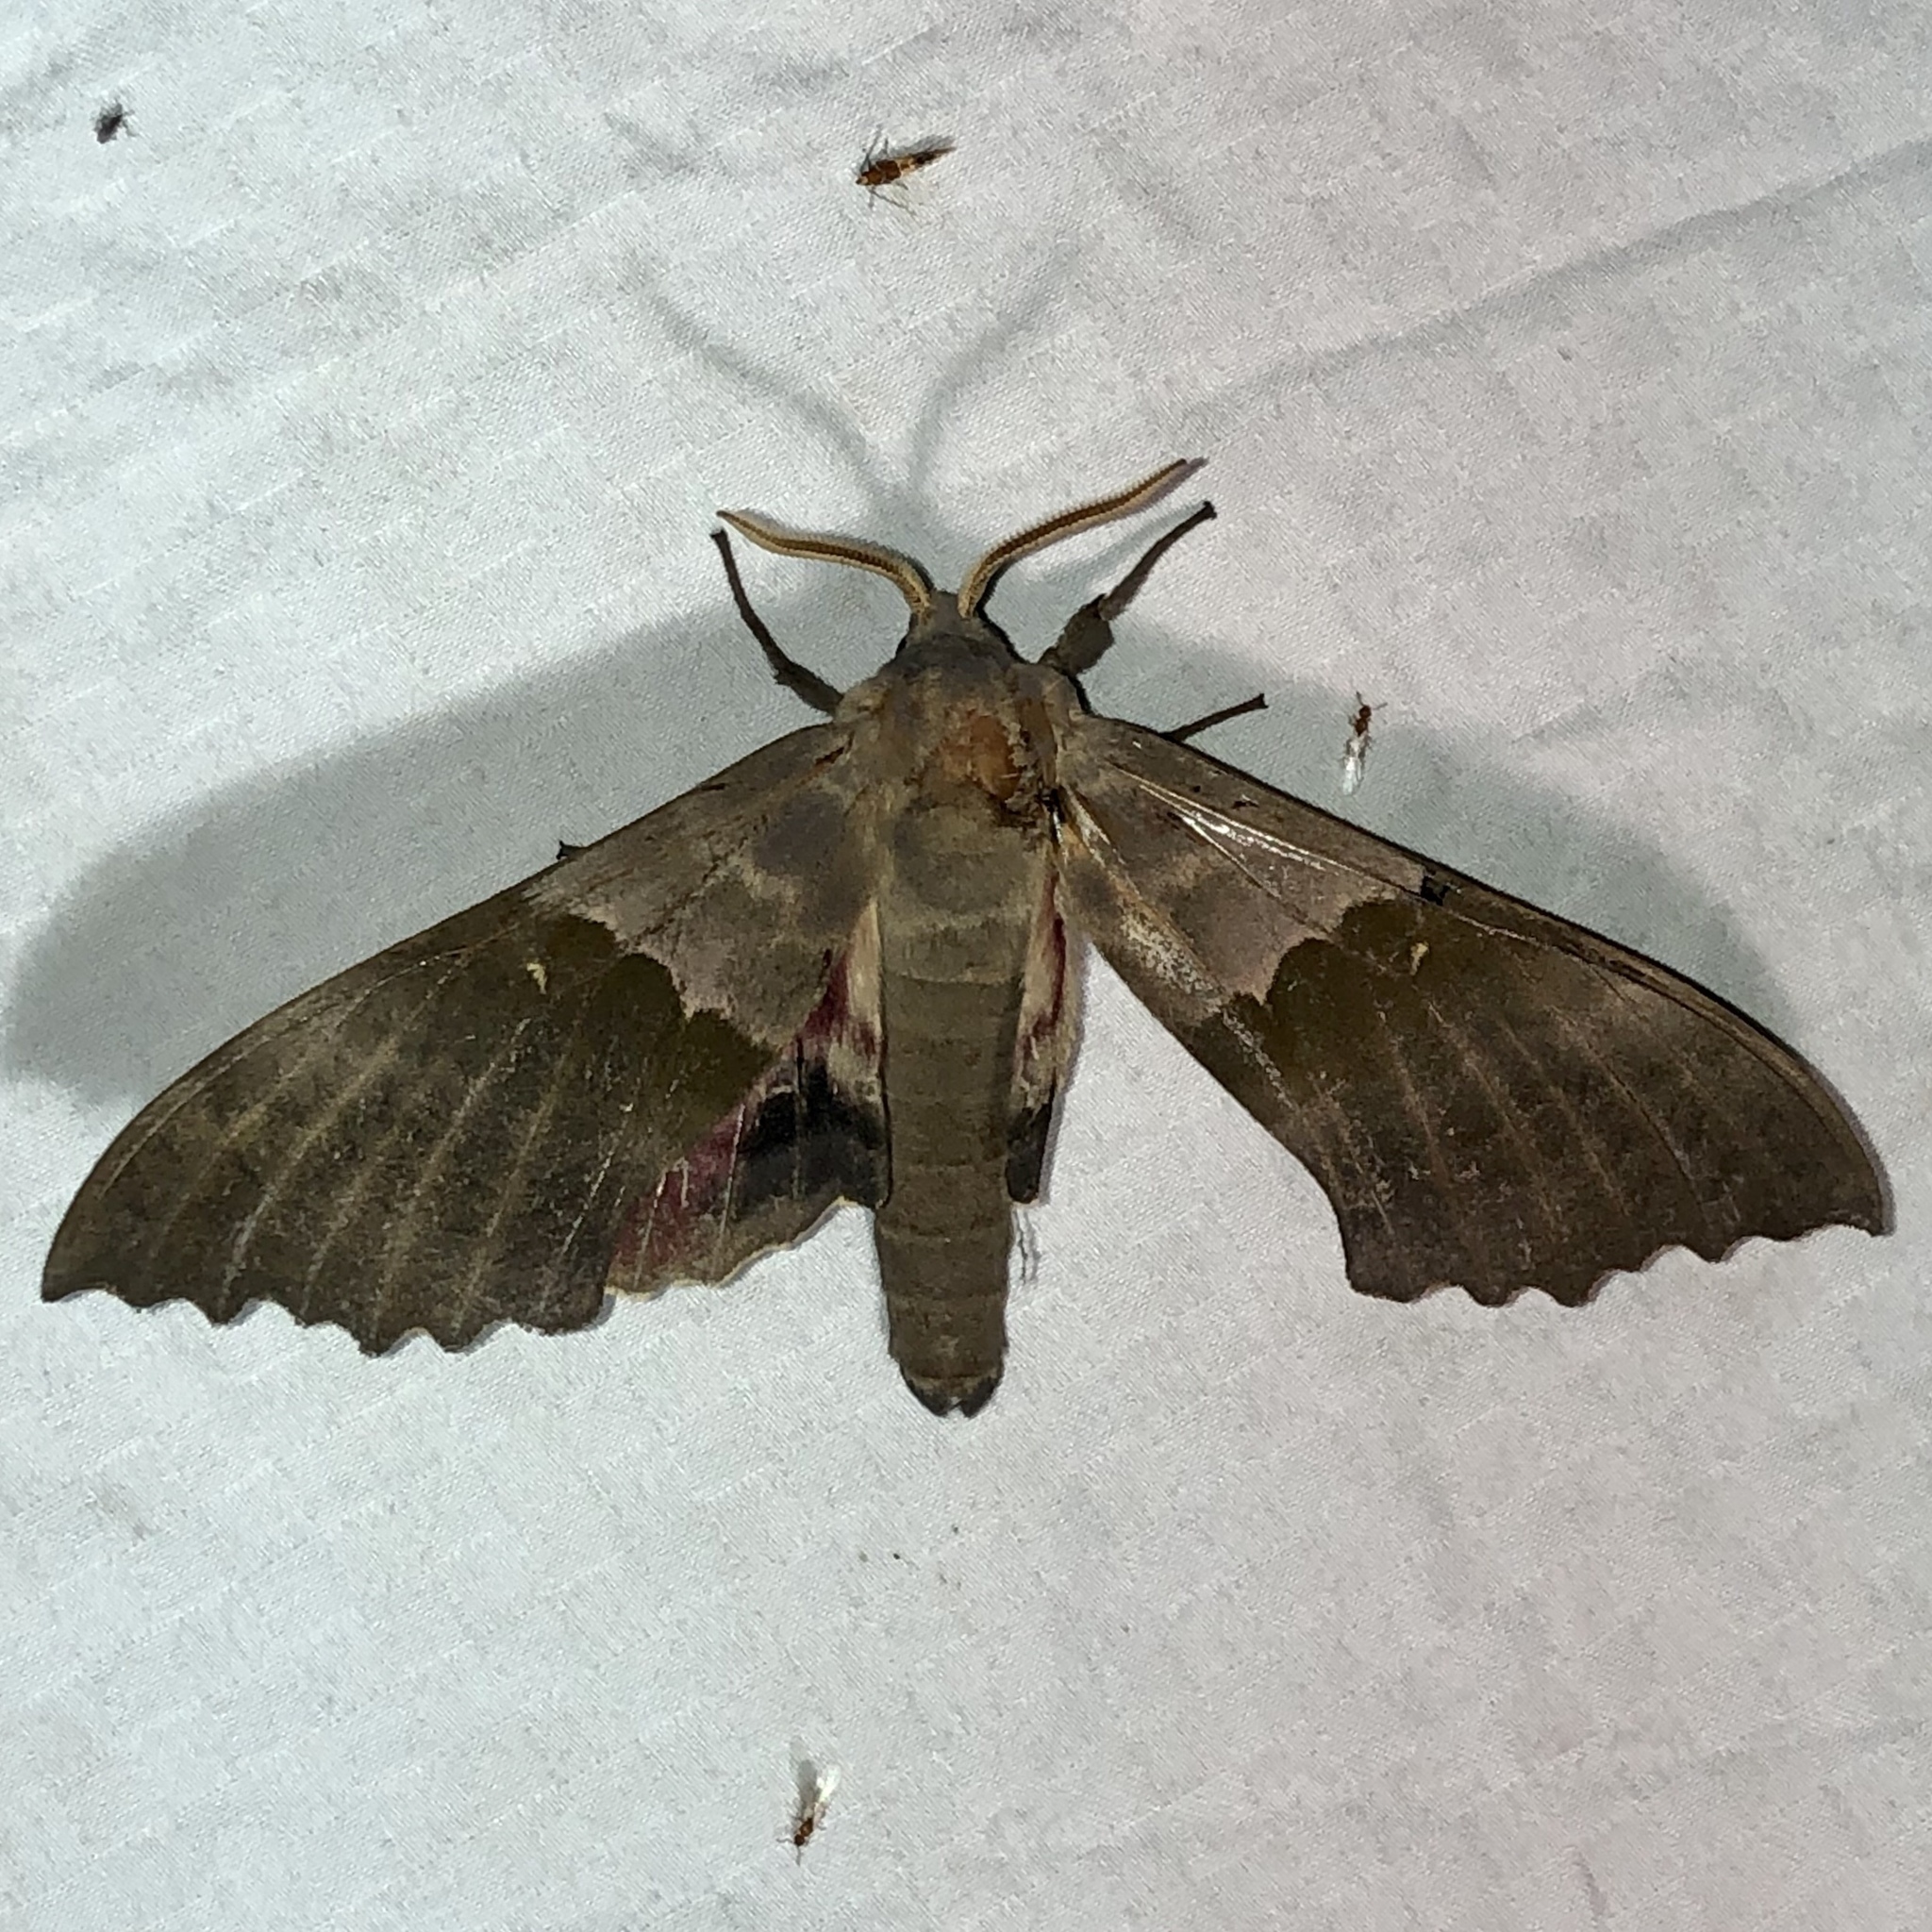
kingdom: Animalia
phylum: Arthropoda
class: Insecta
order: Lepidoptera
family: Sphingidae
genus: Pachysphinx
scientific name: Pachysphinx modesta
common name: Big poplar sphinx
